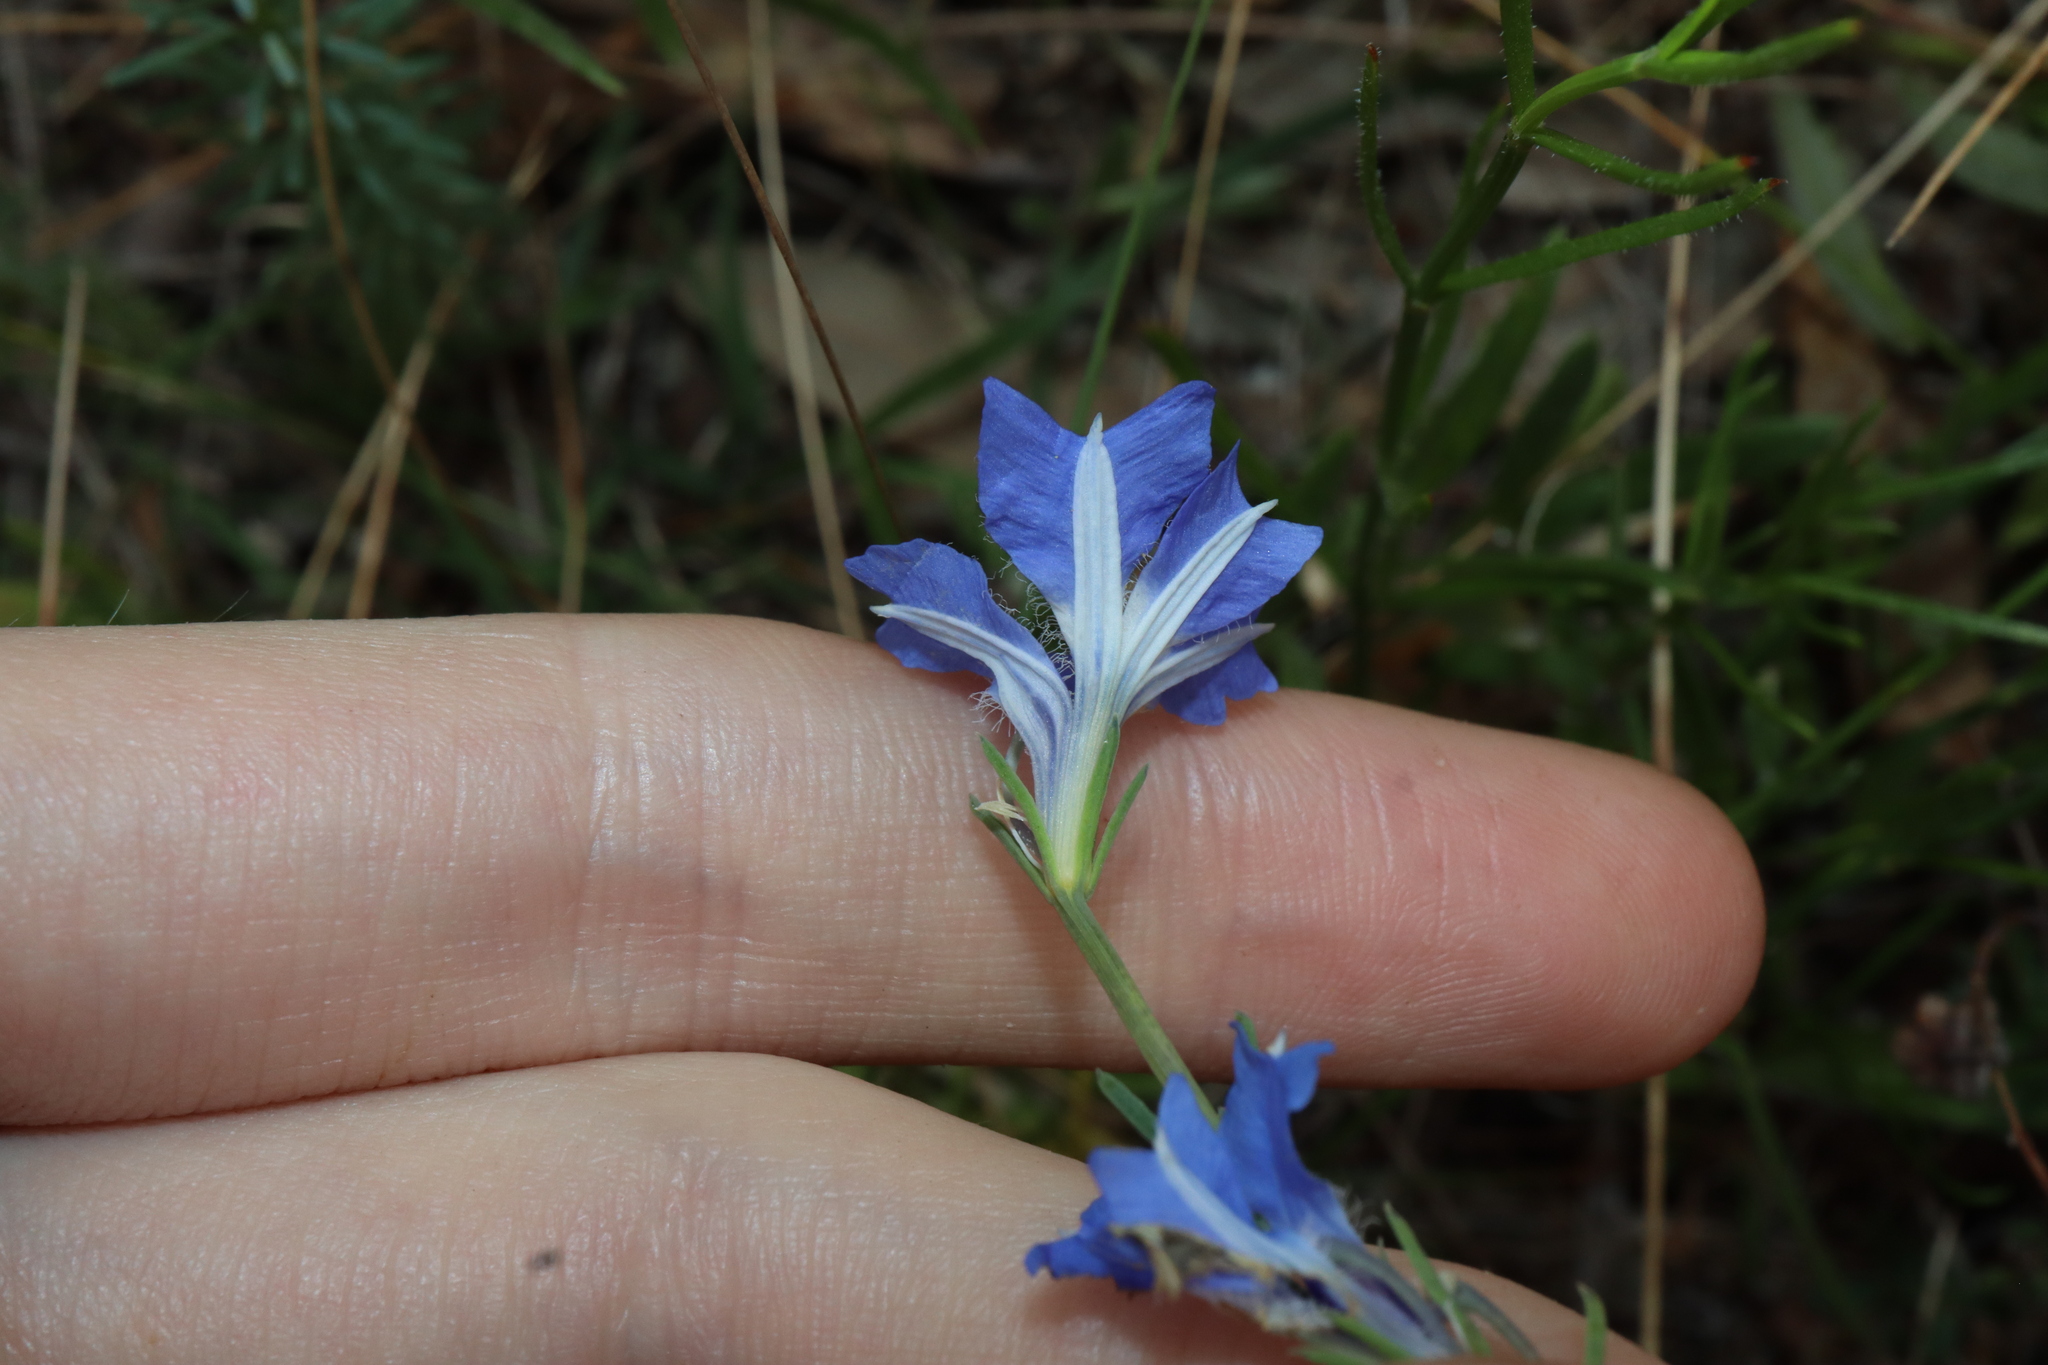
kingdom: Plantae
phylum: Tracheophyta
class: Magnoliopsida
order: Asterales
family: Goodeniaceae
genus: Lechenaultia
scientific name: Lechenaultia biloba
